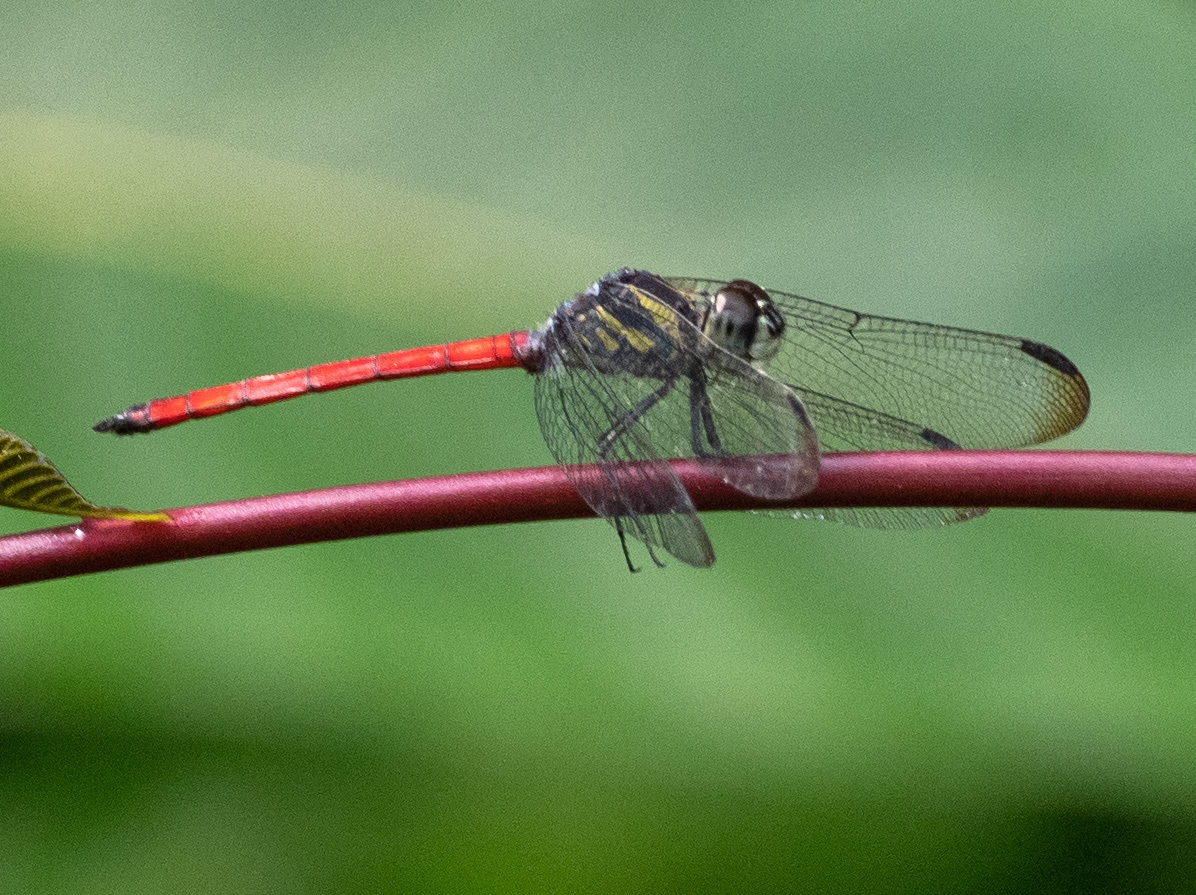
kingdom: Animalia
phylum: Arthropoda
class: Insecta
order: Odonata
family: Libellulidae
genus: Lathrecista
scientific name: Lathrecista asiatica
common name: Scarlet grenadier
